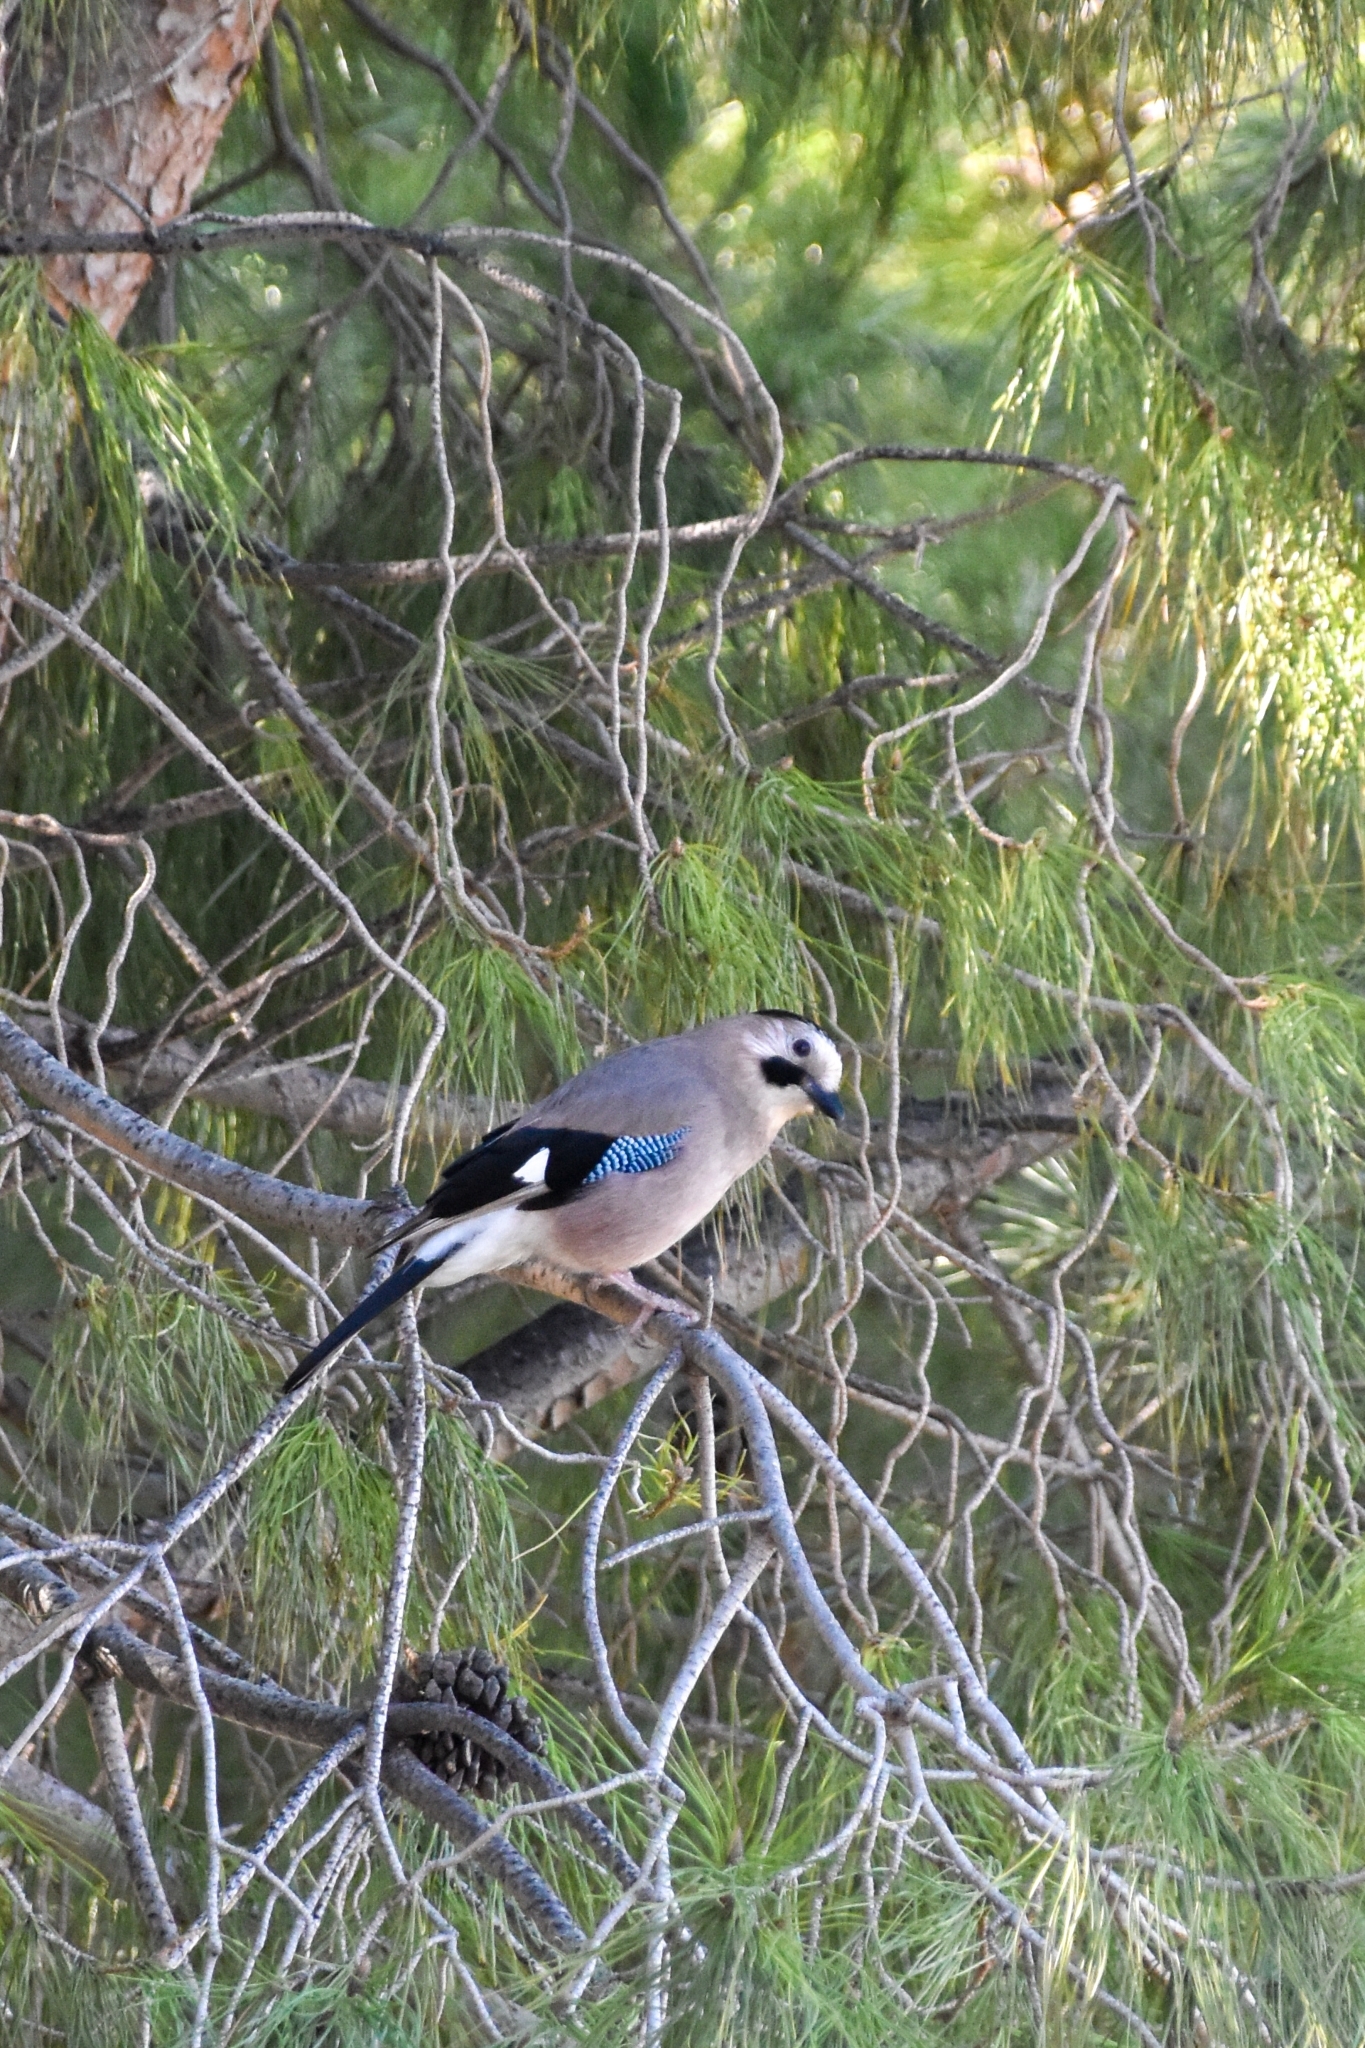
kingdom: Animalia
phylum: Chordata
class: Aves
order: Passeriformes
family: Corvidae
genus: Garrulus
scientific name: Garrulus glandarius
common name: Eurasian jay
